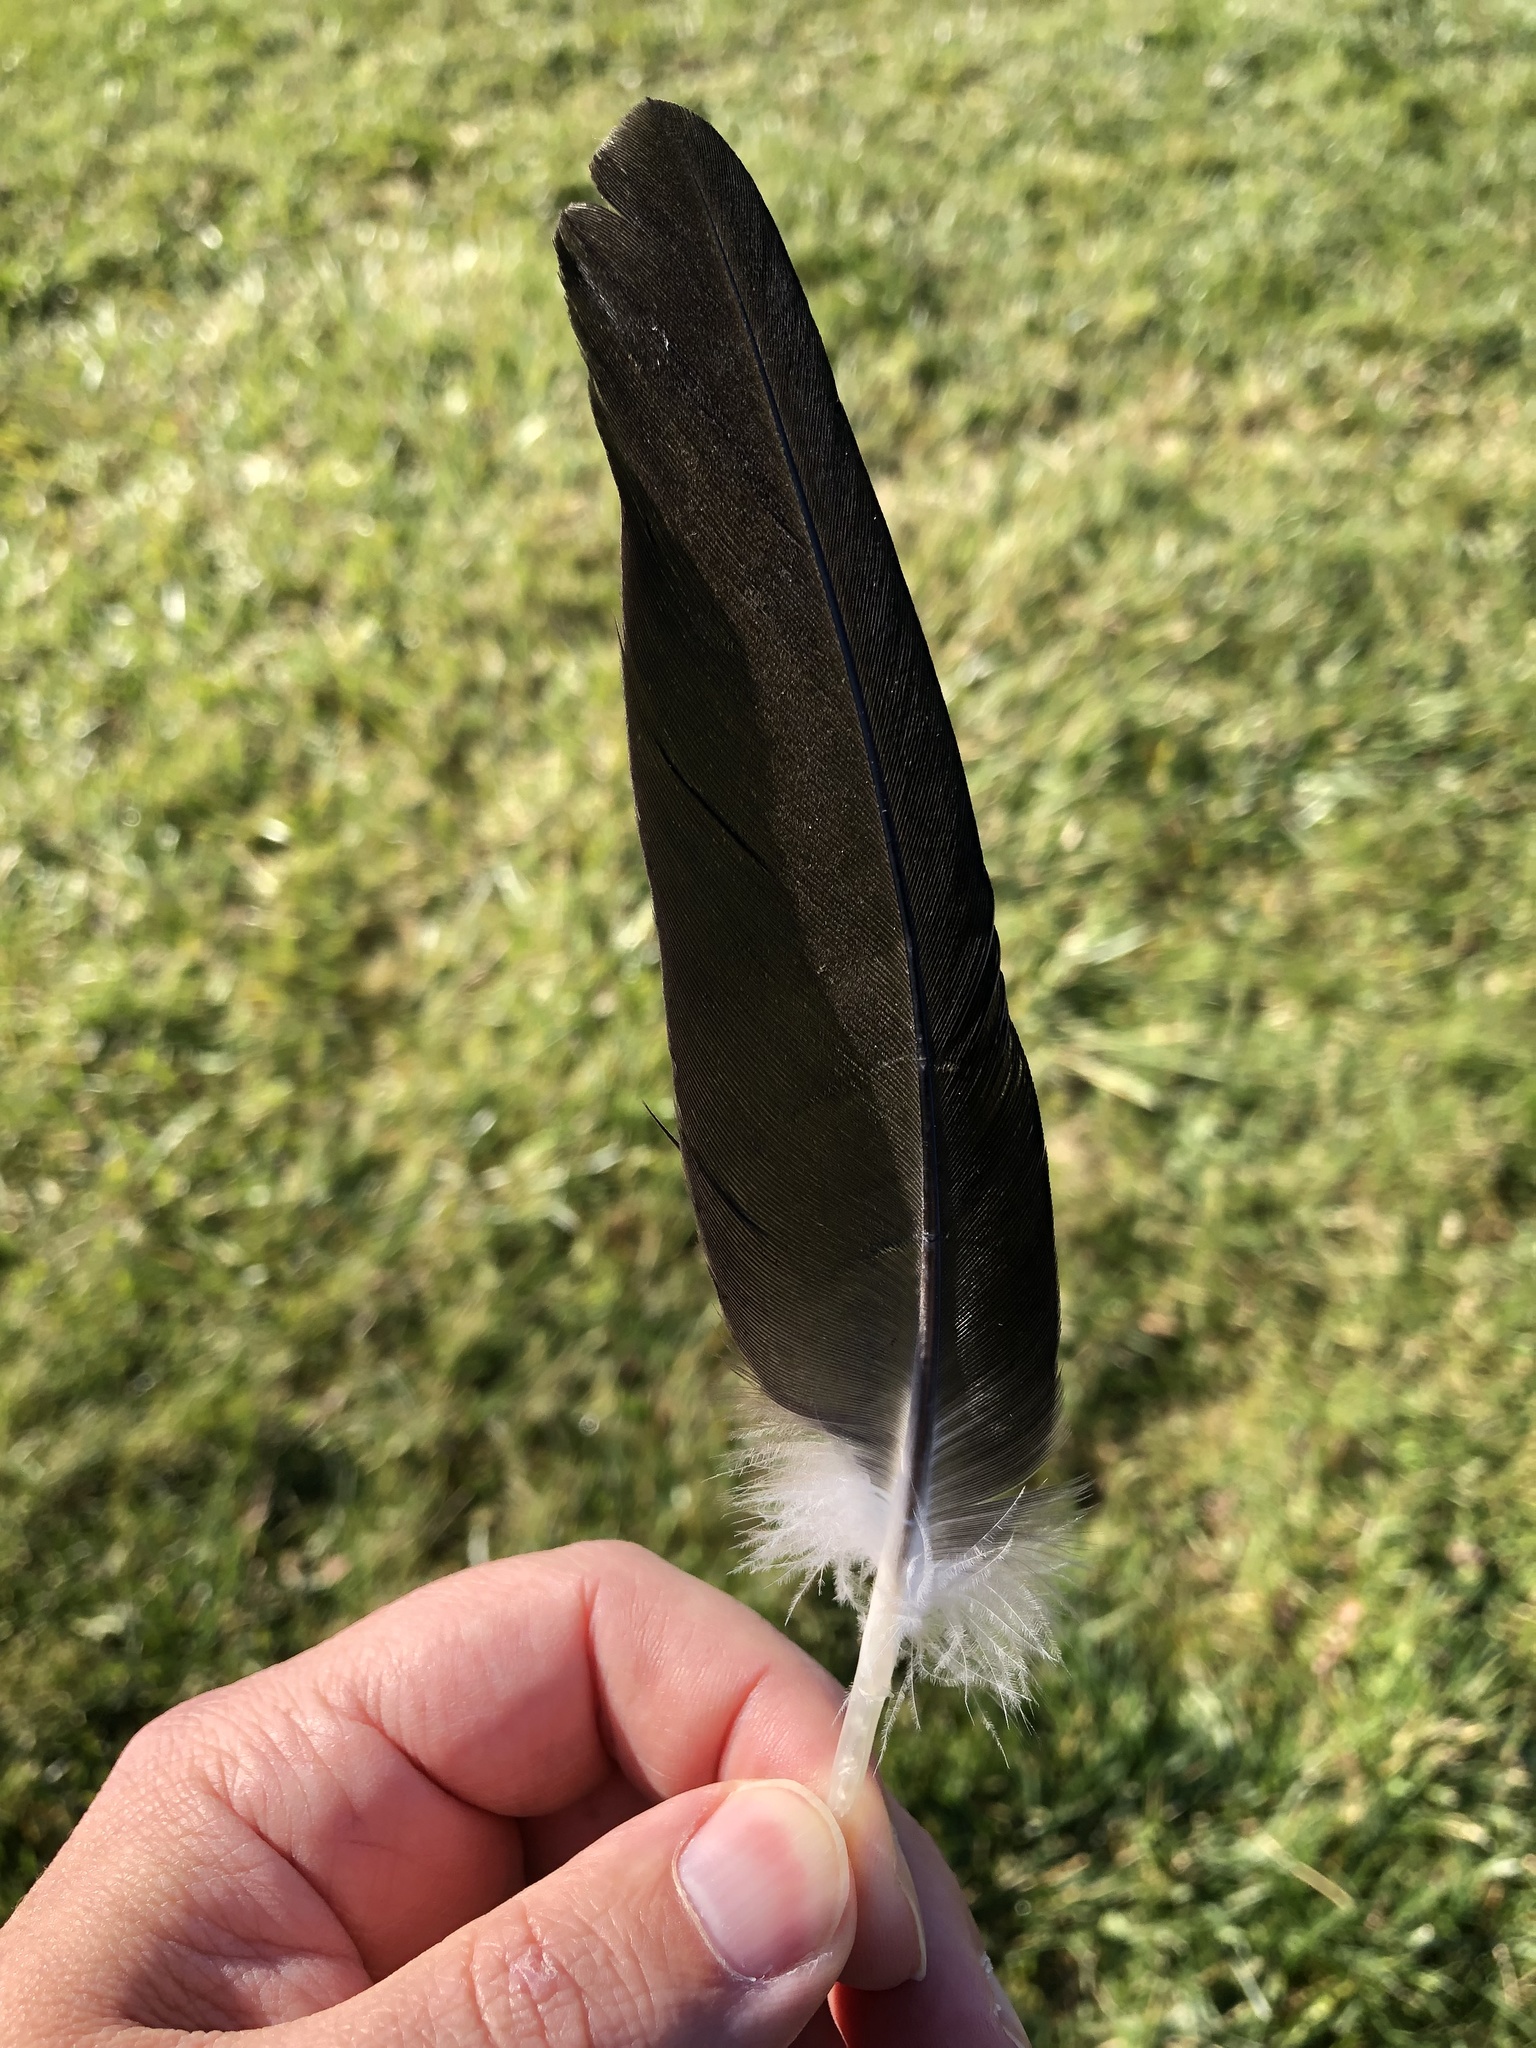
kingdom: Animalia
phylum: Chordata
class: Aves
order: Anseriformes
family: Anatidae
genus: Branta
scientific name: Branta canadensis
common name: Canada goose
